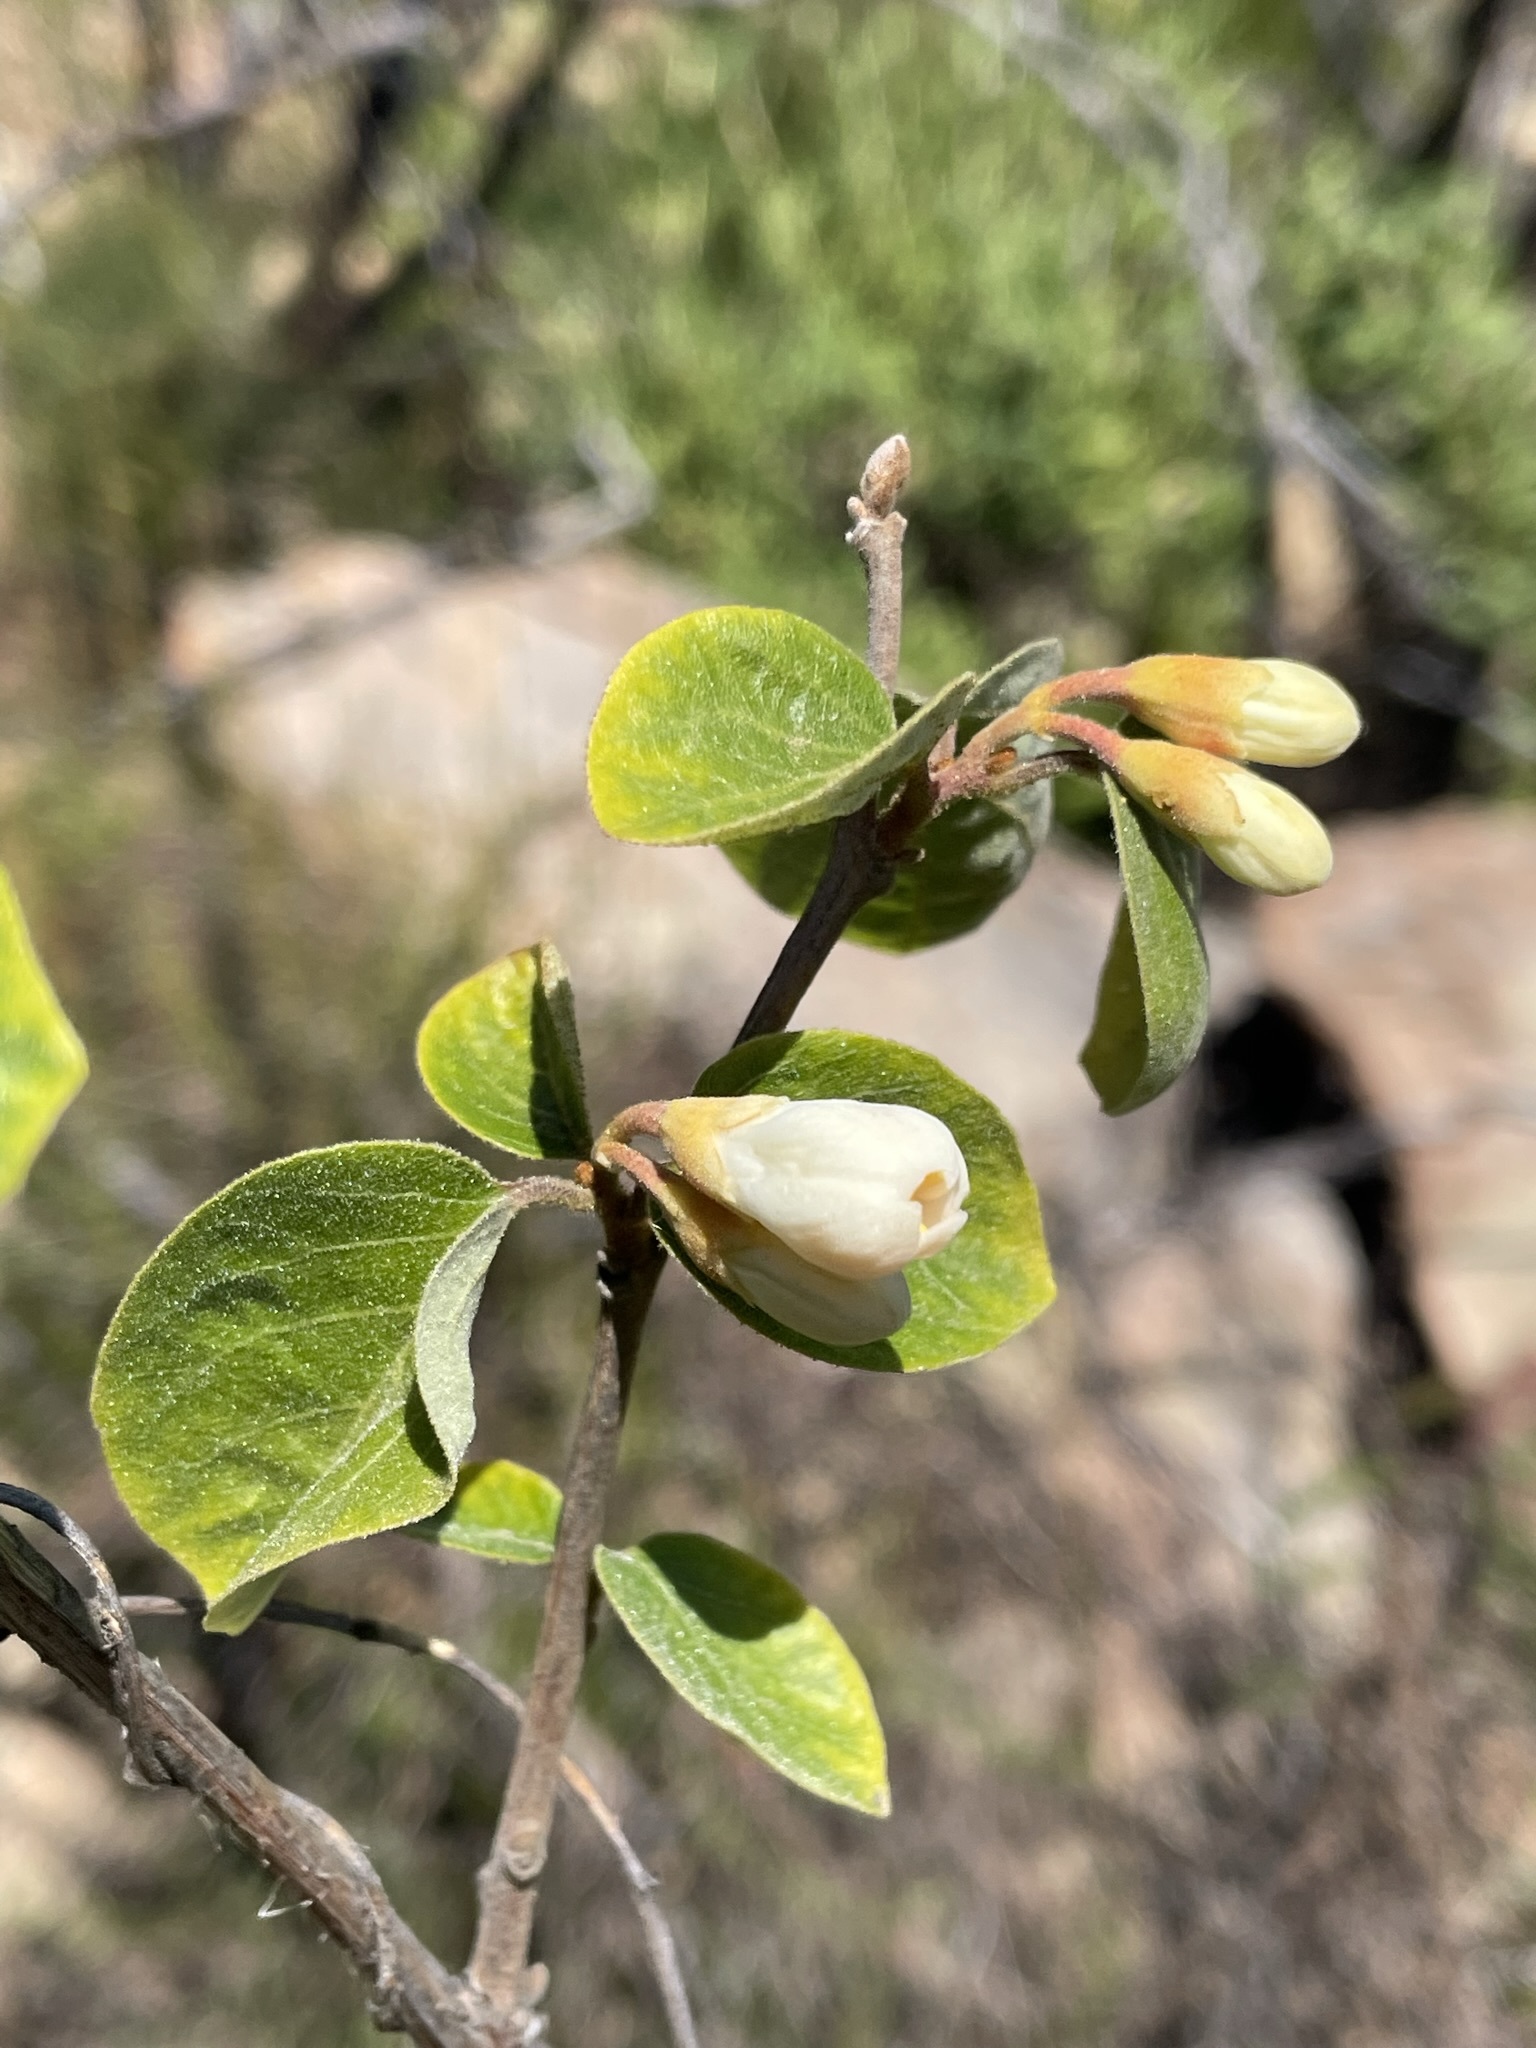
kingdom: Plantae
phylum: Tracheophyta
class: Magnoliopsida
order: Ericales
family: Styracaceae
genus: Styrax
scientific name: Styrax redivivus
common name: California styrax
